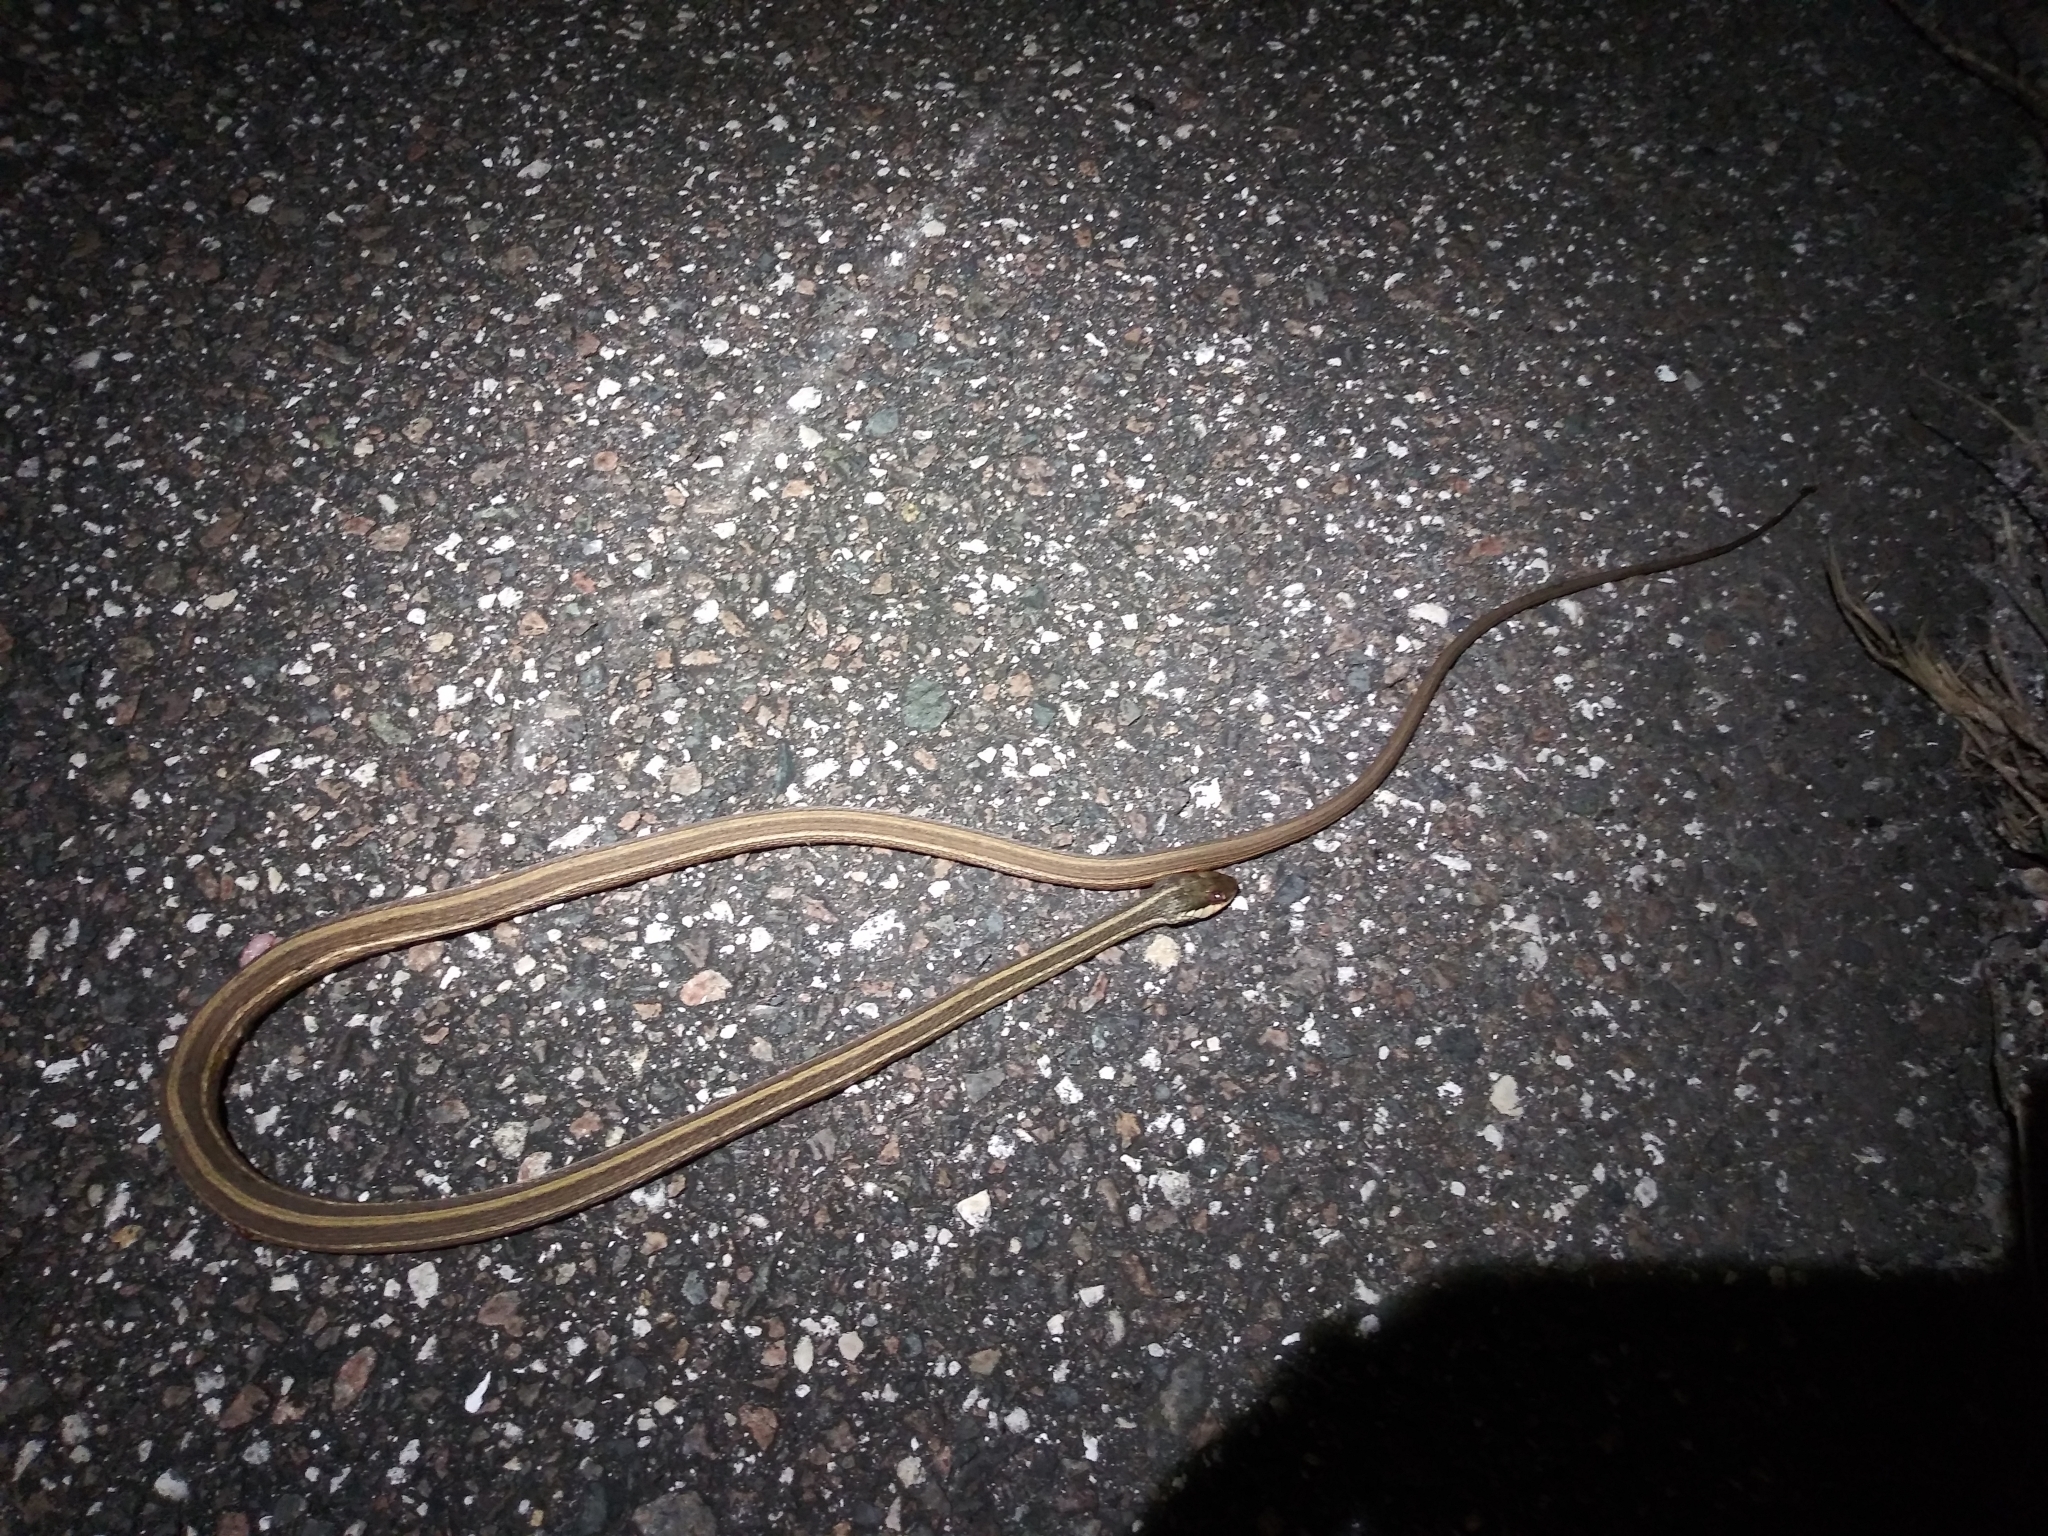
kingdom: Animalia
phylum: Chordata
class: Squamata
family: Colubridae
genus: Thamnophis
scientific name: Thamnophis saurita
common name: Eastern ribbonsnake
